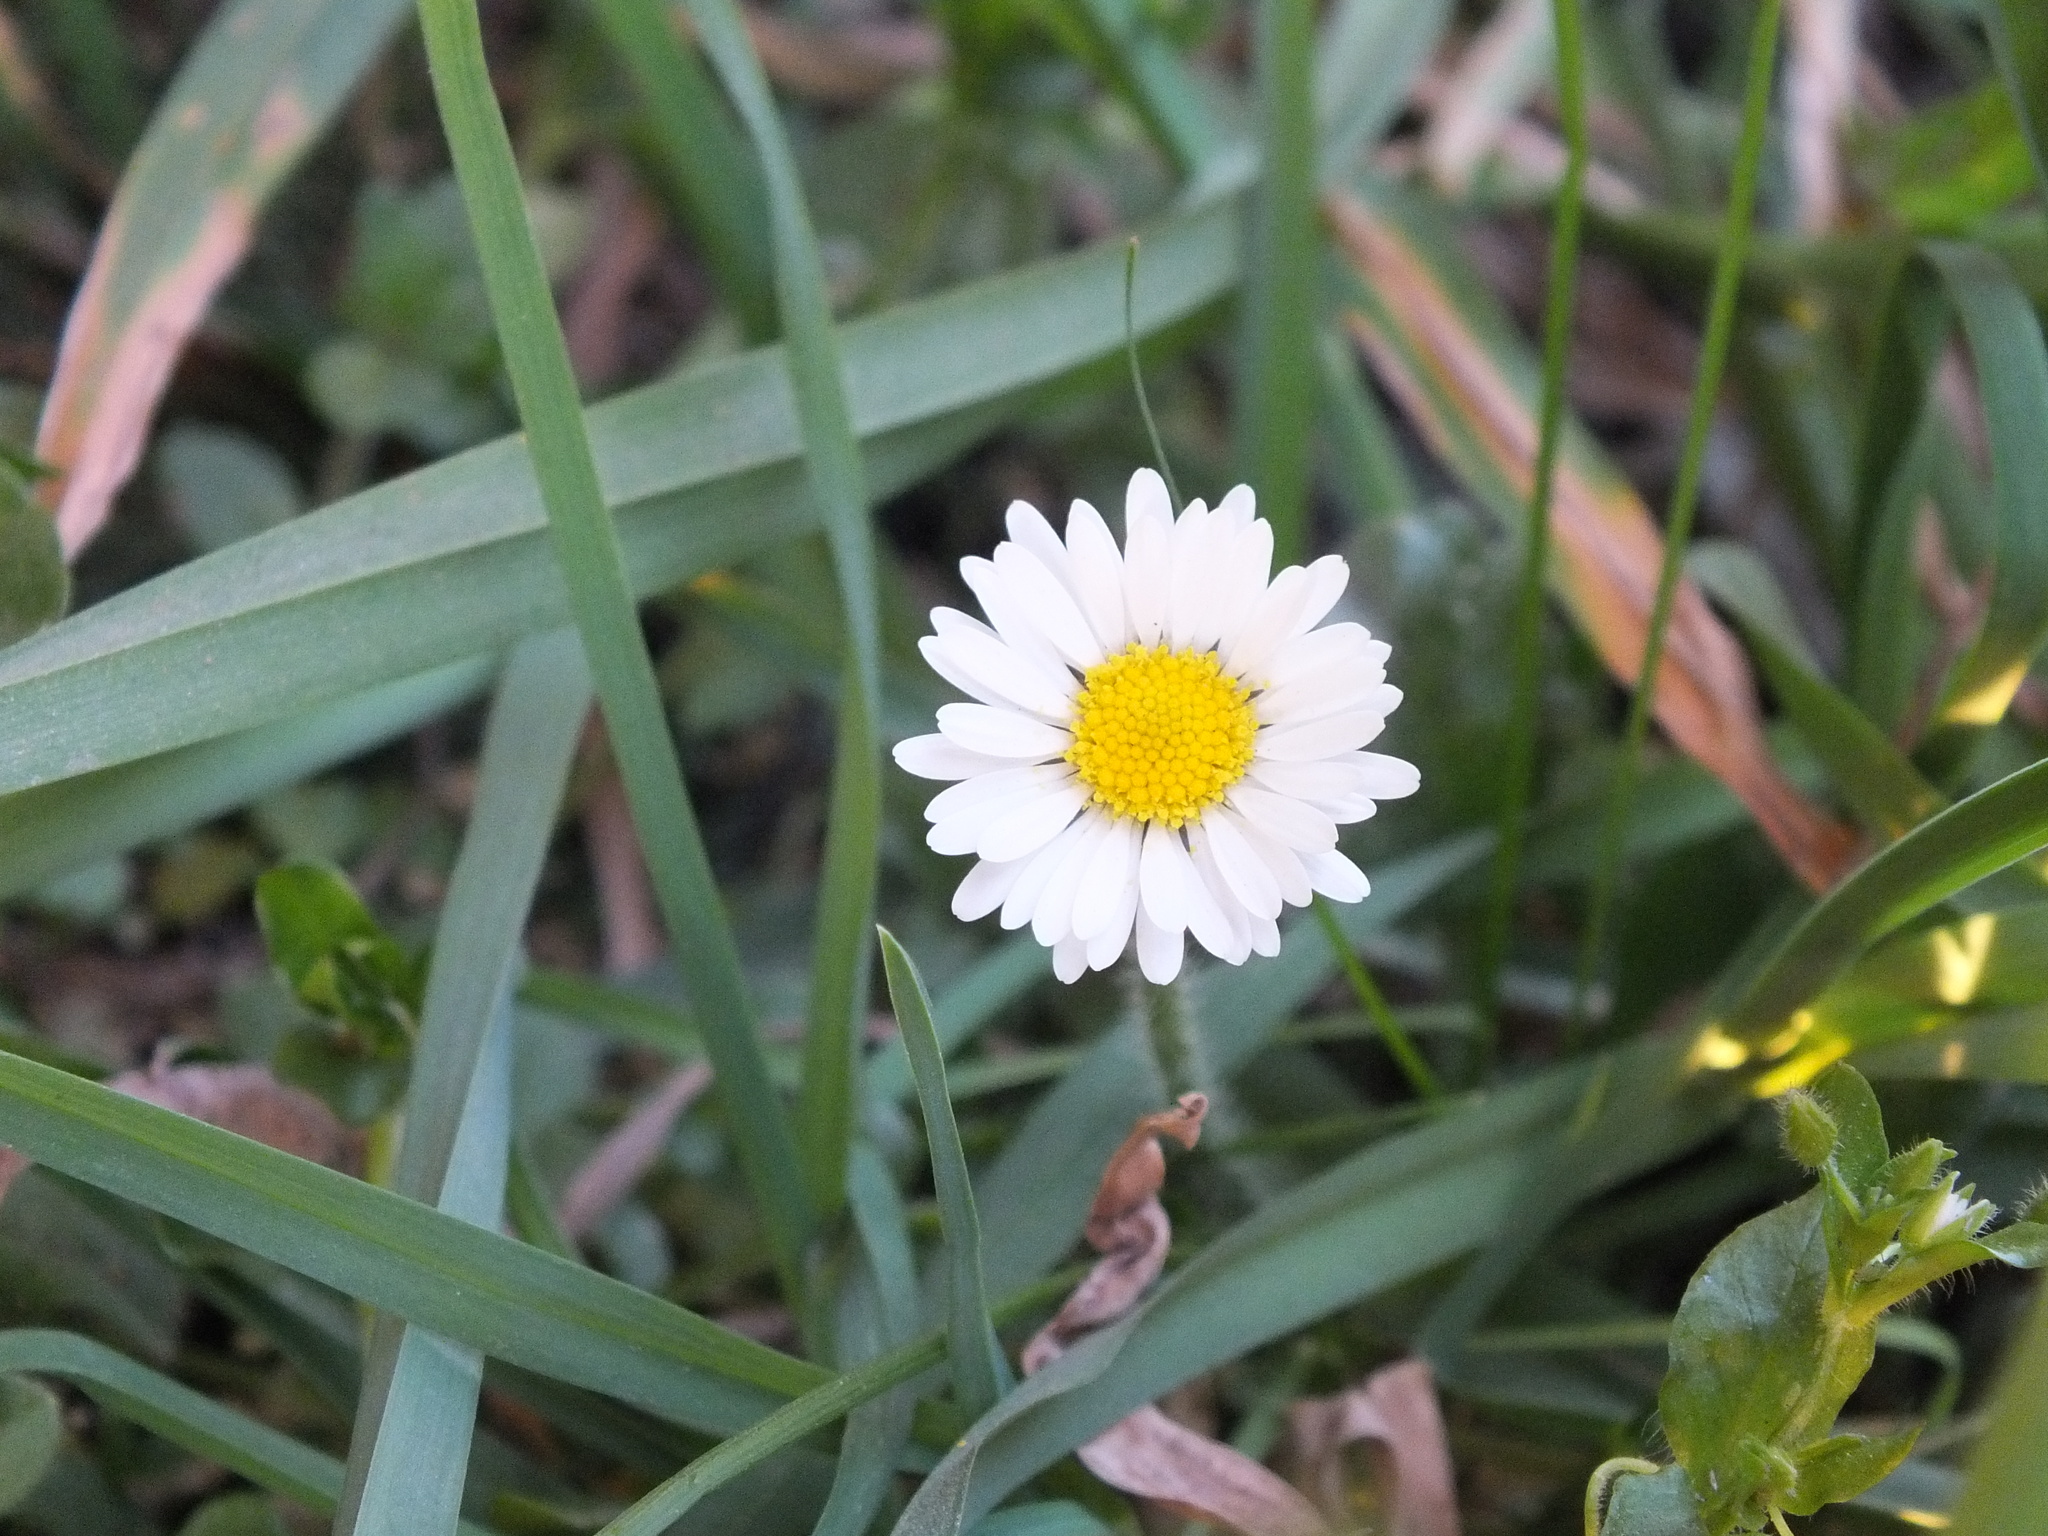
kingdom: Plantae
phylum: Tracheophyta
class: Magnoliopsida
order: Asterales
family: Asteraceae
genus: Bellis
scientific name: Bellis perennis
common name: Lawndaisy
